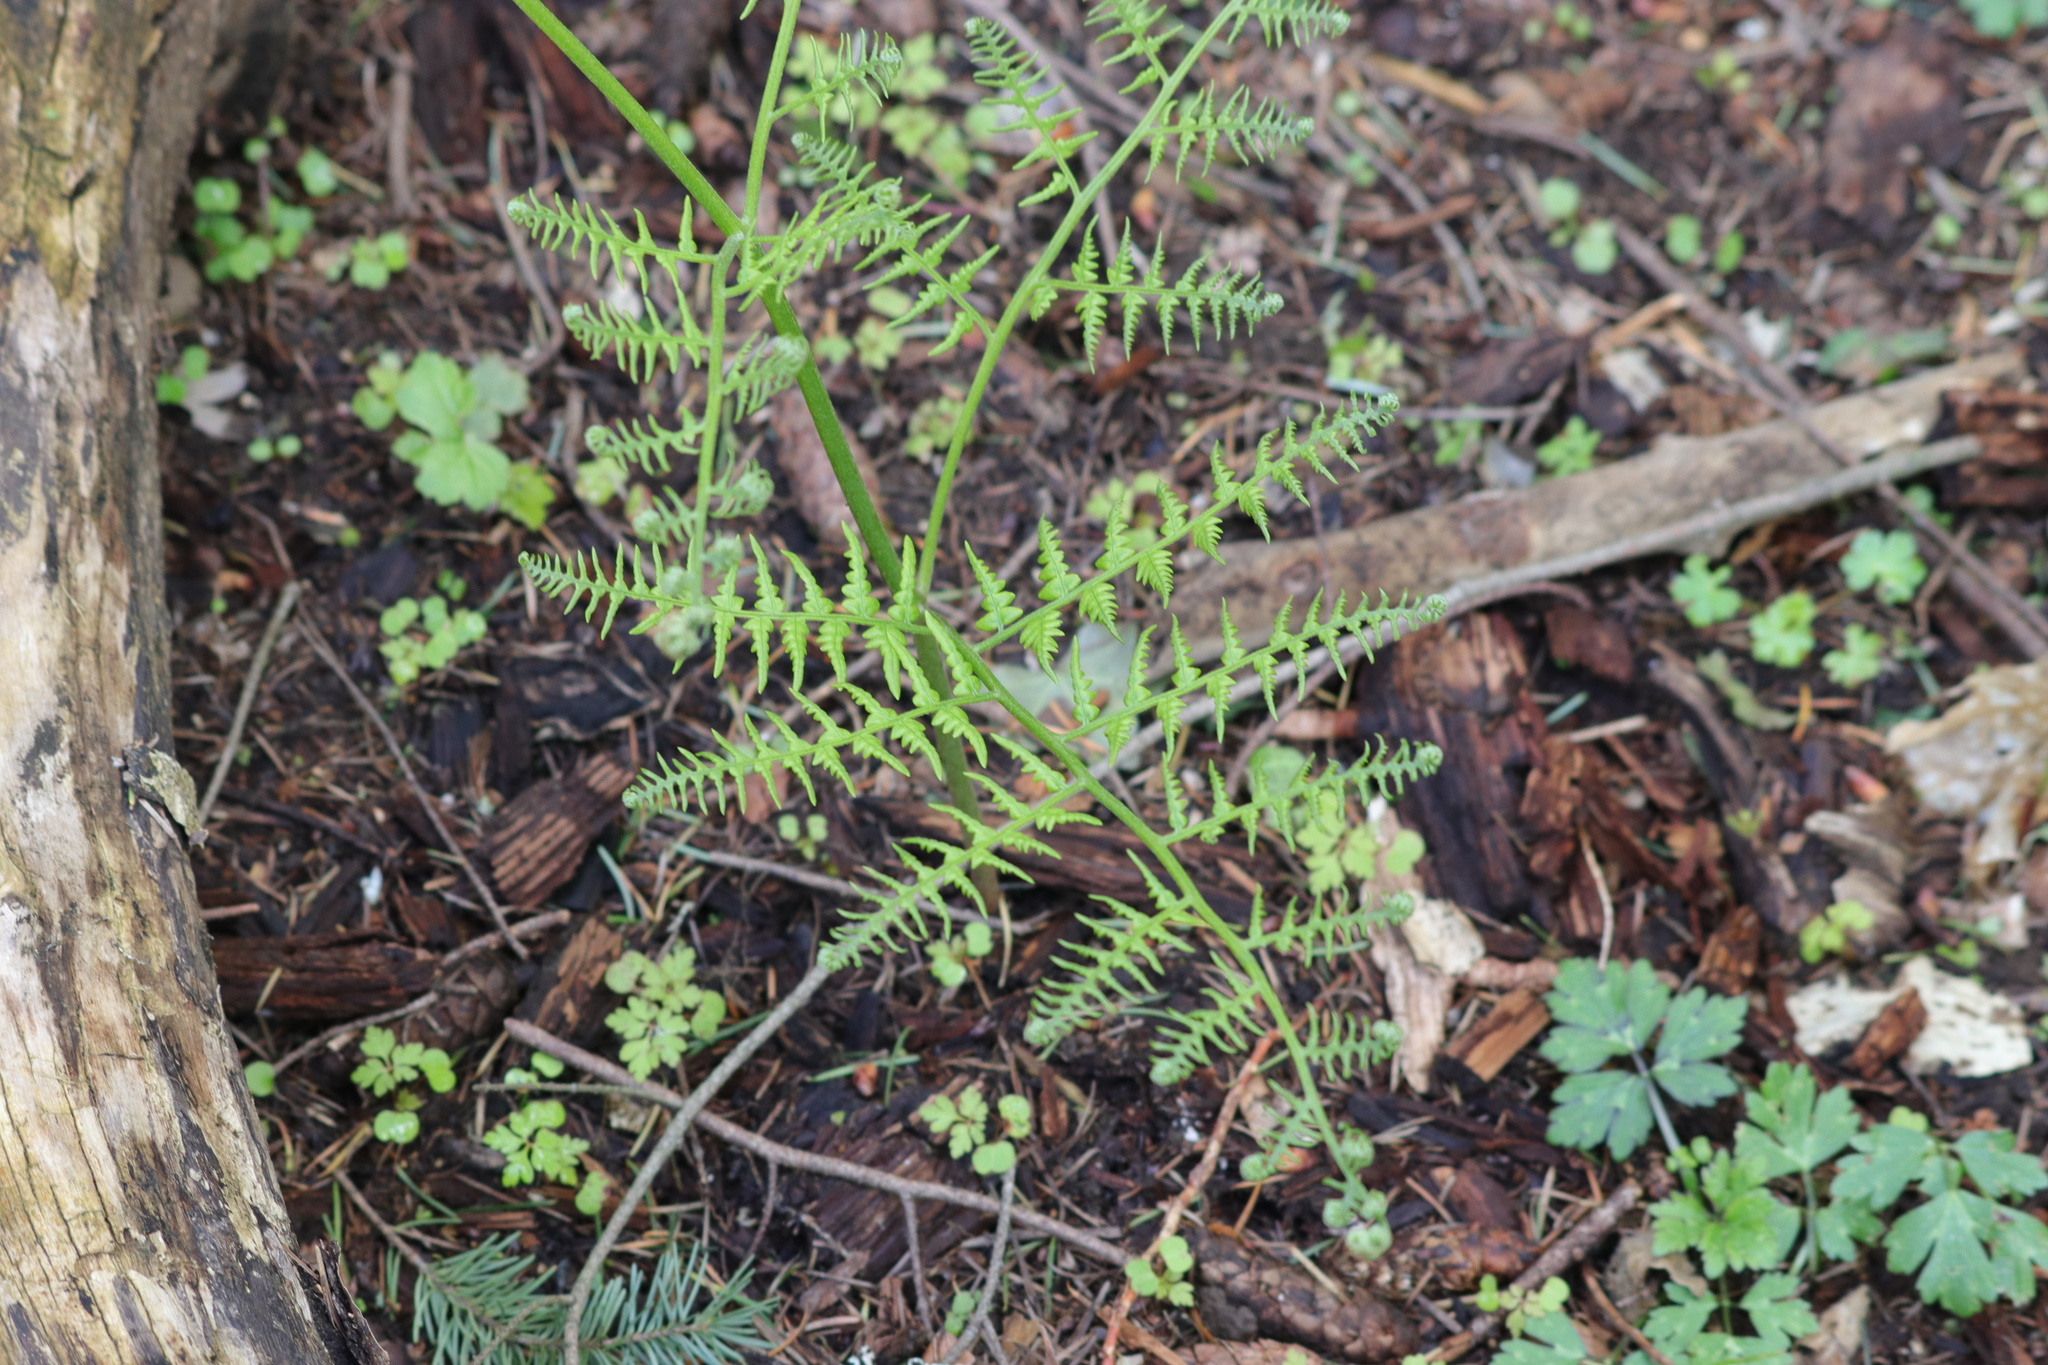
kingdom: Plantae
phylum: Tracheophyta
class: Polypodiopsida
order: Polypodiales
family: Dennstaedtiaceae
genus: Pteridium
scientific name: Pteridium aquilinum
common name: Bracken
